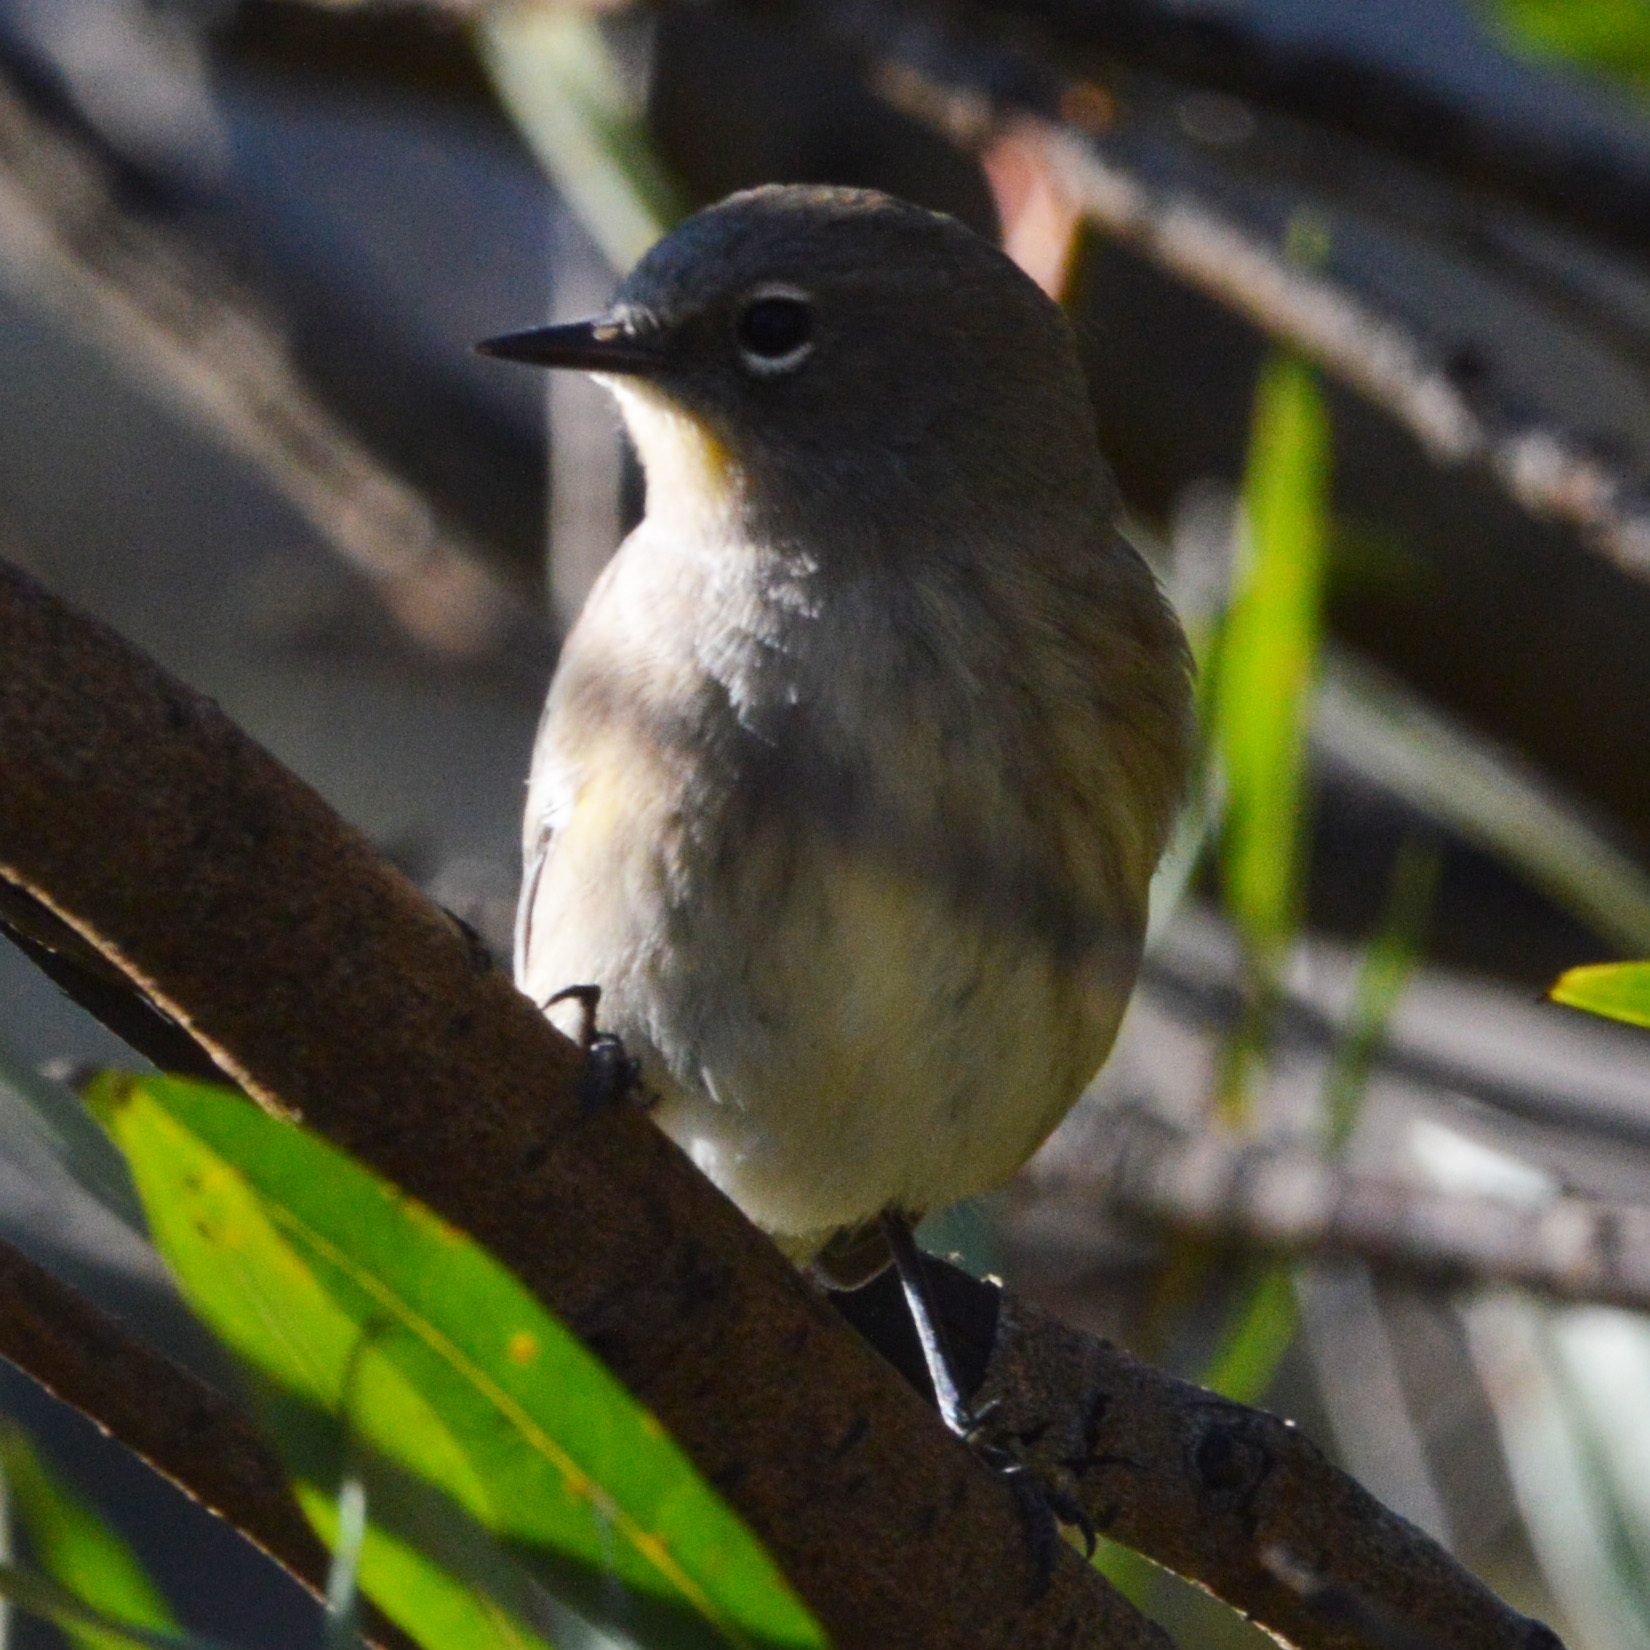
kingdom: Animalia
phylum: Chordata
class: Aves
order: Passeriformes
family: Parulidae
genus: Setophaga
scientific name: Setophaga coronata
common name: Myrtle warbler
